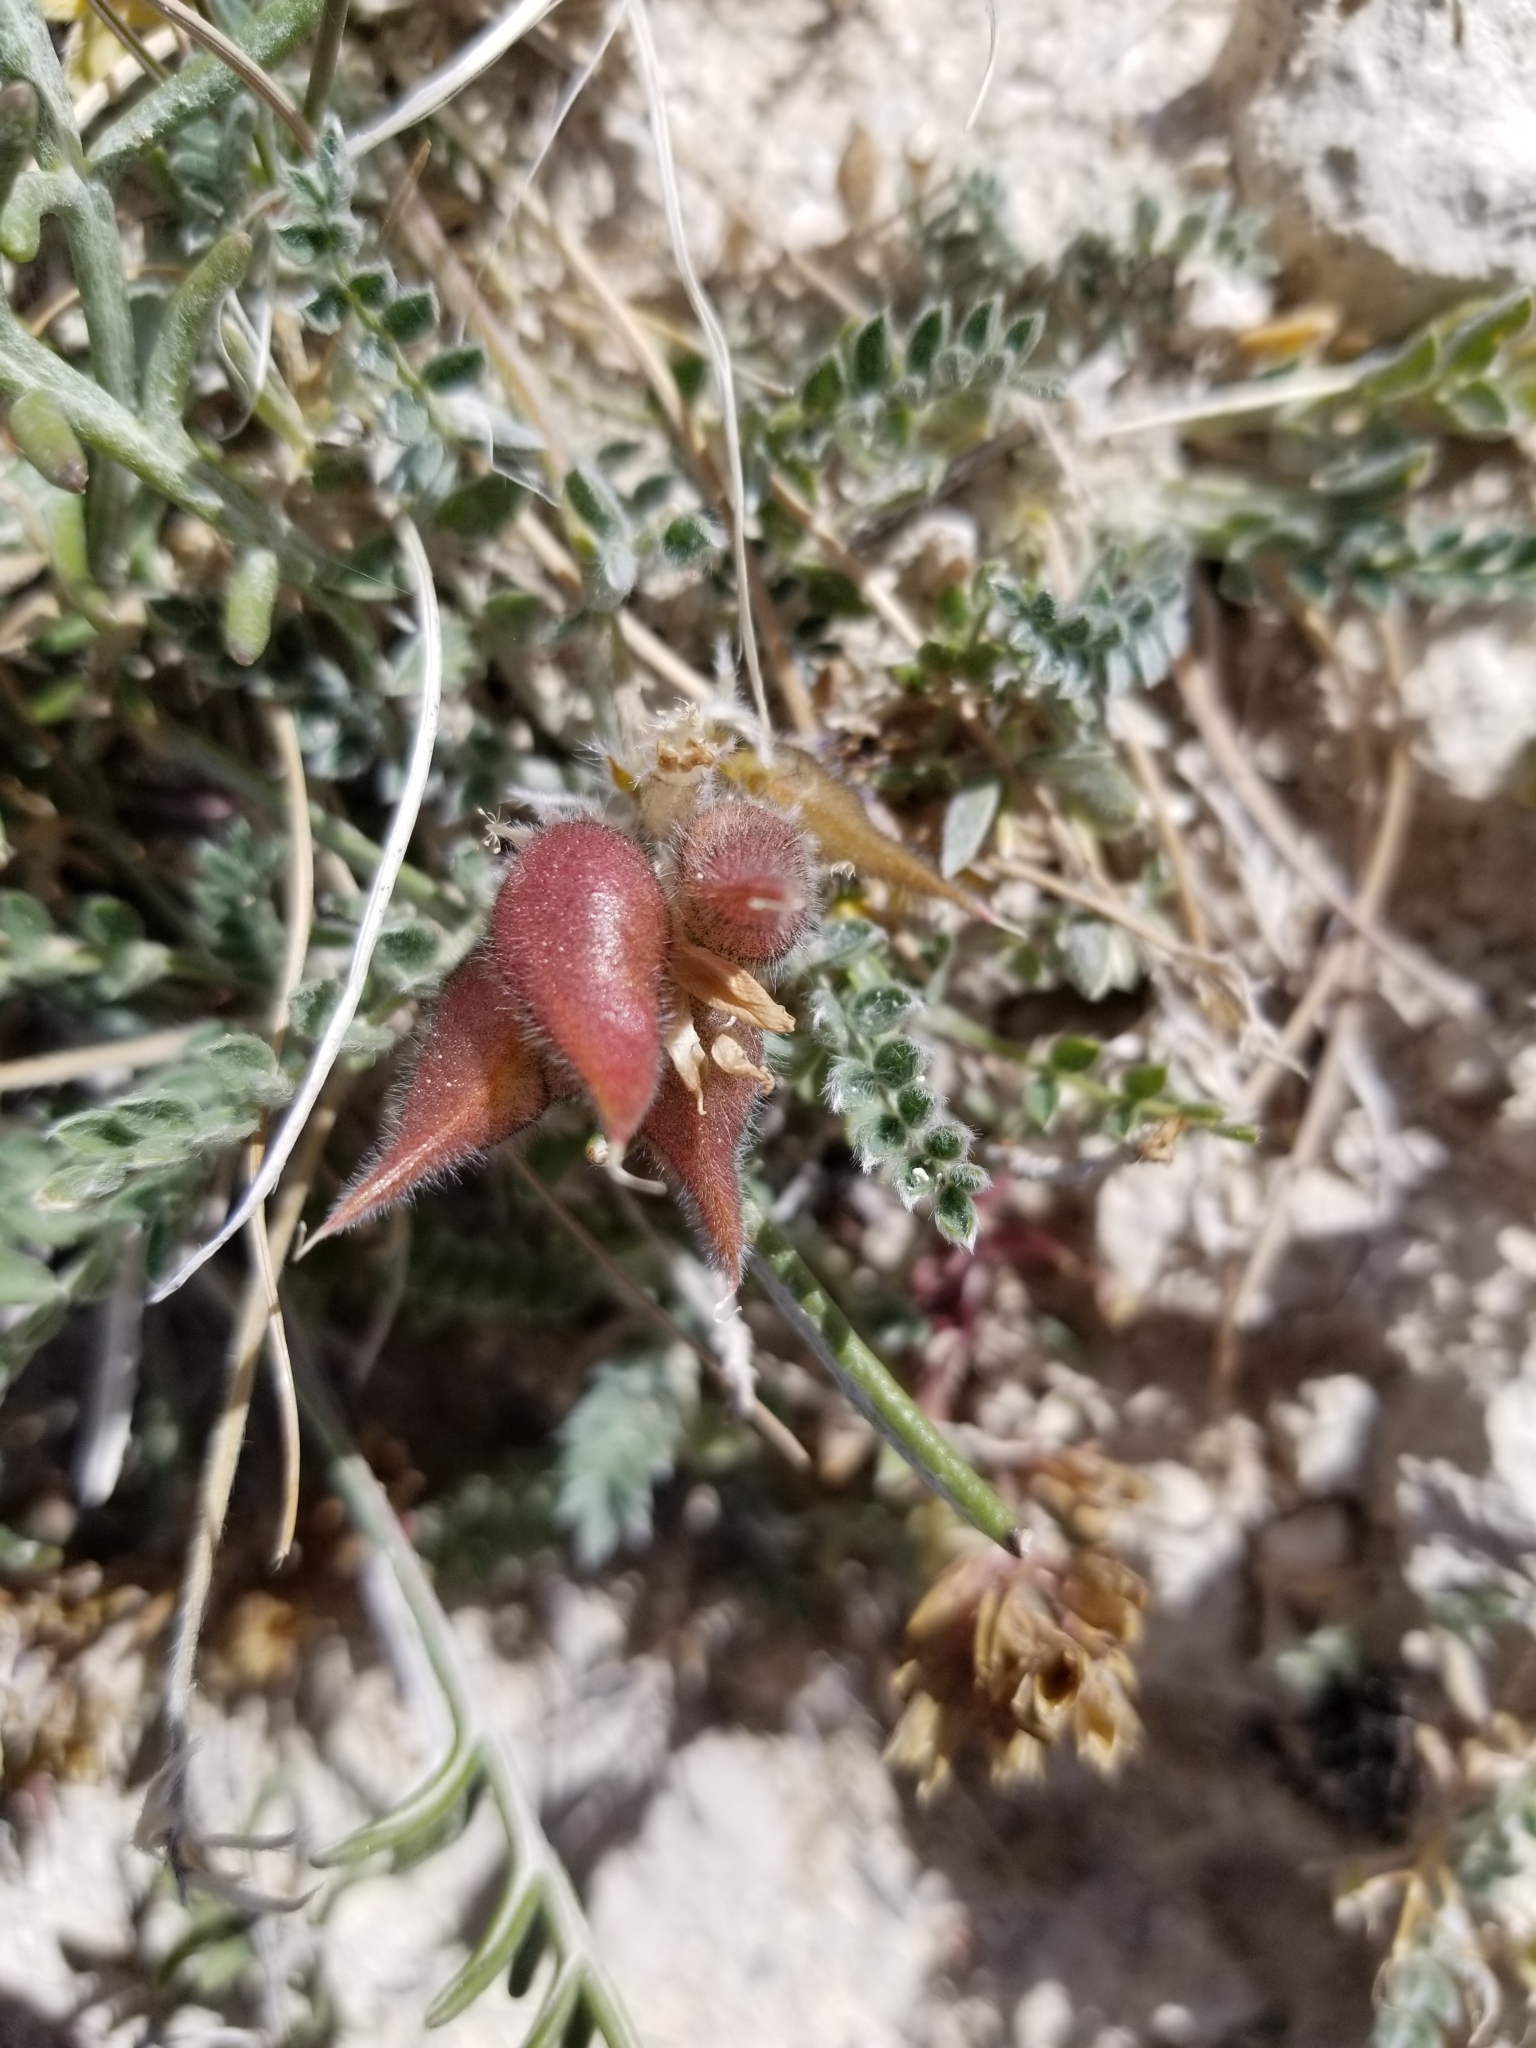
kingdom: Plantae
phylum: Tracheophyta
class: Magnoliopsida
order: Fabales
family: Fabaceae
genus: Oxytropis
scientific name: Oxytropis oreophila
